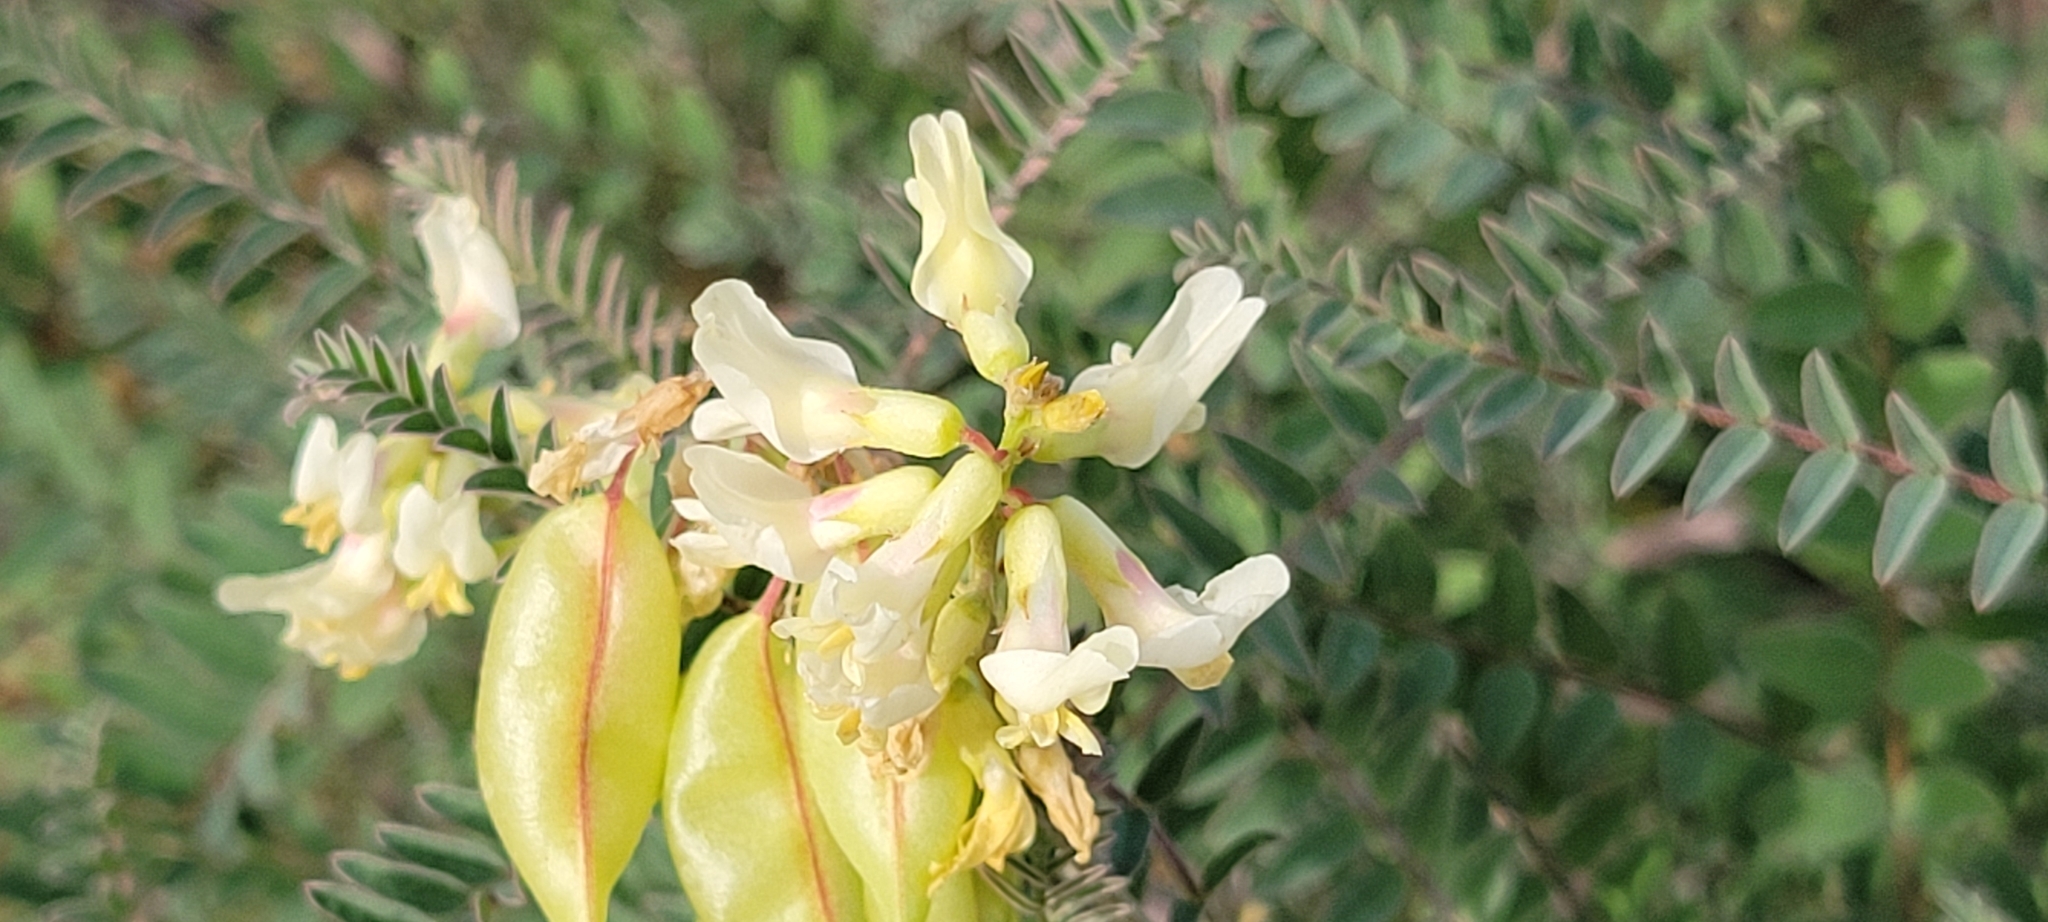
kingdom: Plantae
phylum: Tracheophyta
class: Magnoliopsida
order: Fabales
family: Fabaceae
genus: Astragalus
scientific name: Astragalus trichopodus
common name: Santa barbara milk-vetch
